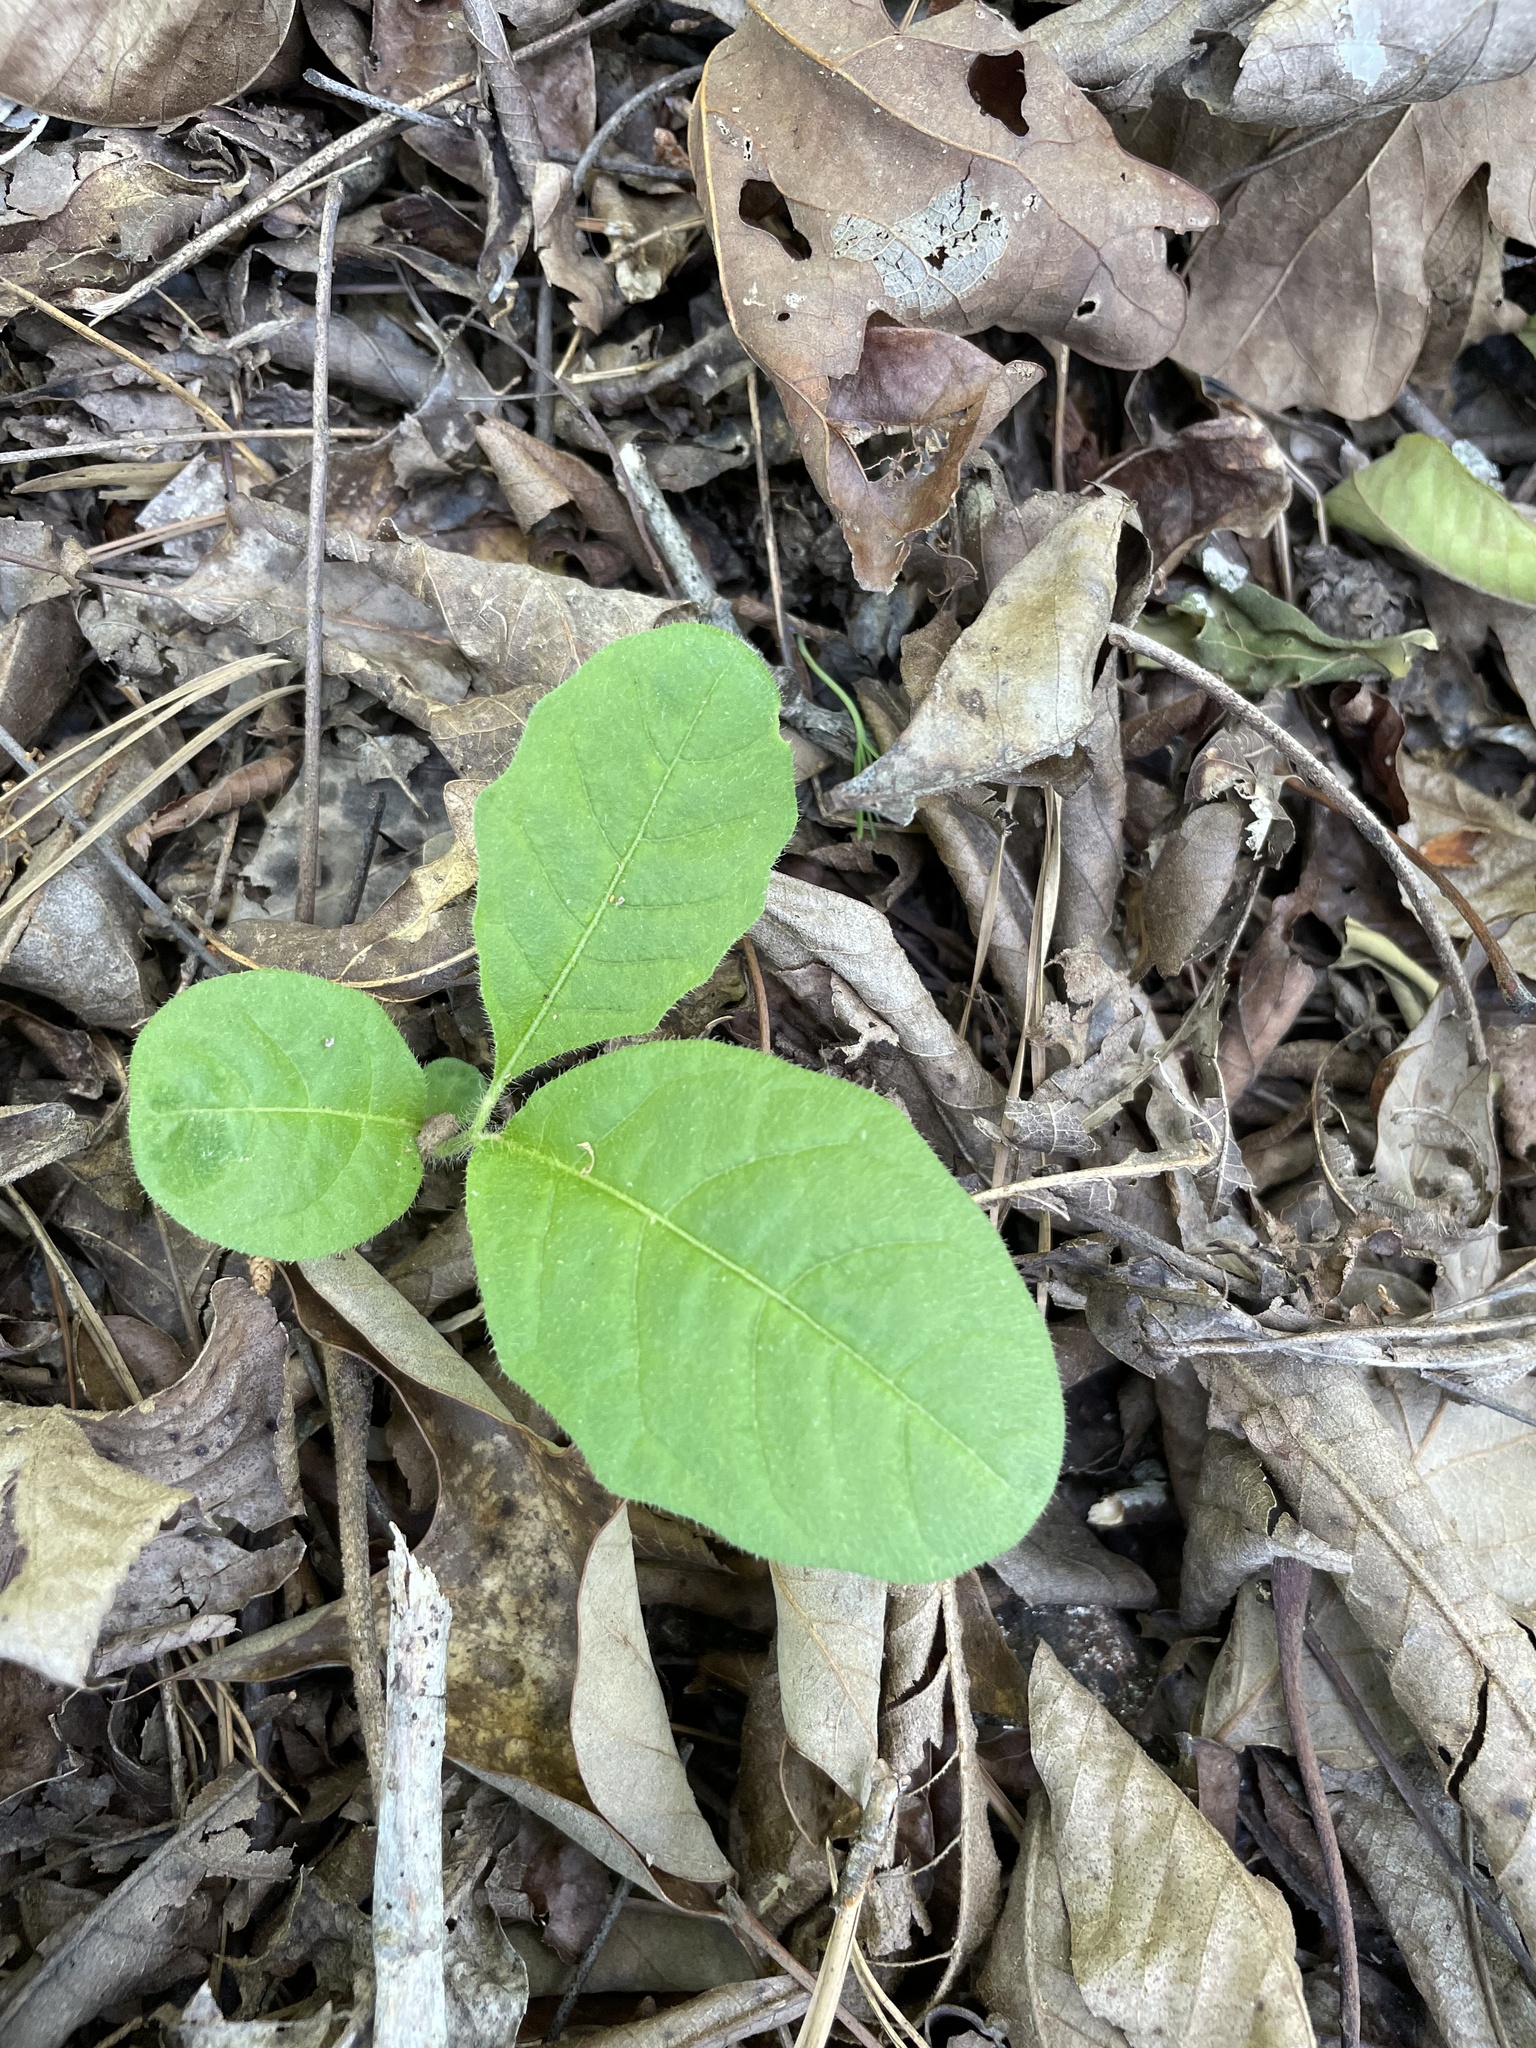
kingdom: Plantae
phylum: Tracheophyta
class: Magnoliopsida
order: Solanales
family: Solanaceae
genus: Solanum
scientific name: Solanum pumilum
